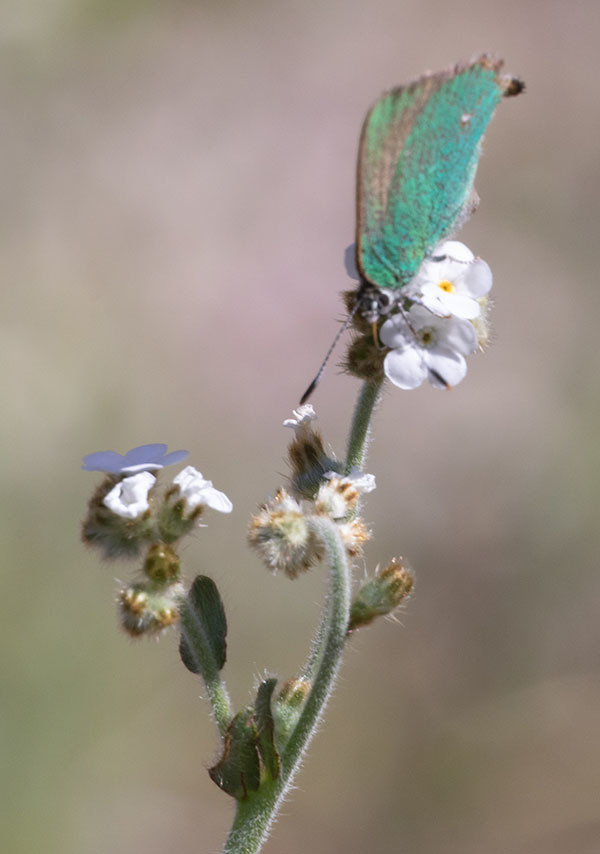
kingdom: Animalia
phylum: Arthropoda
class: Insecta
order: Lepidoptera
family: Lycaenidae
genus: Callophrys
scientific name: Callophrys dumetorum
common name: Bramble hairstreak
